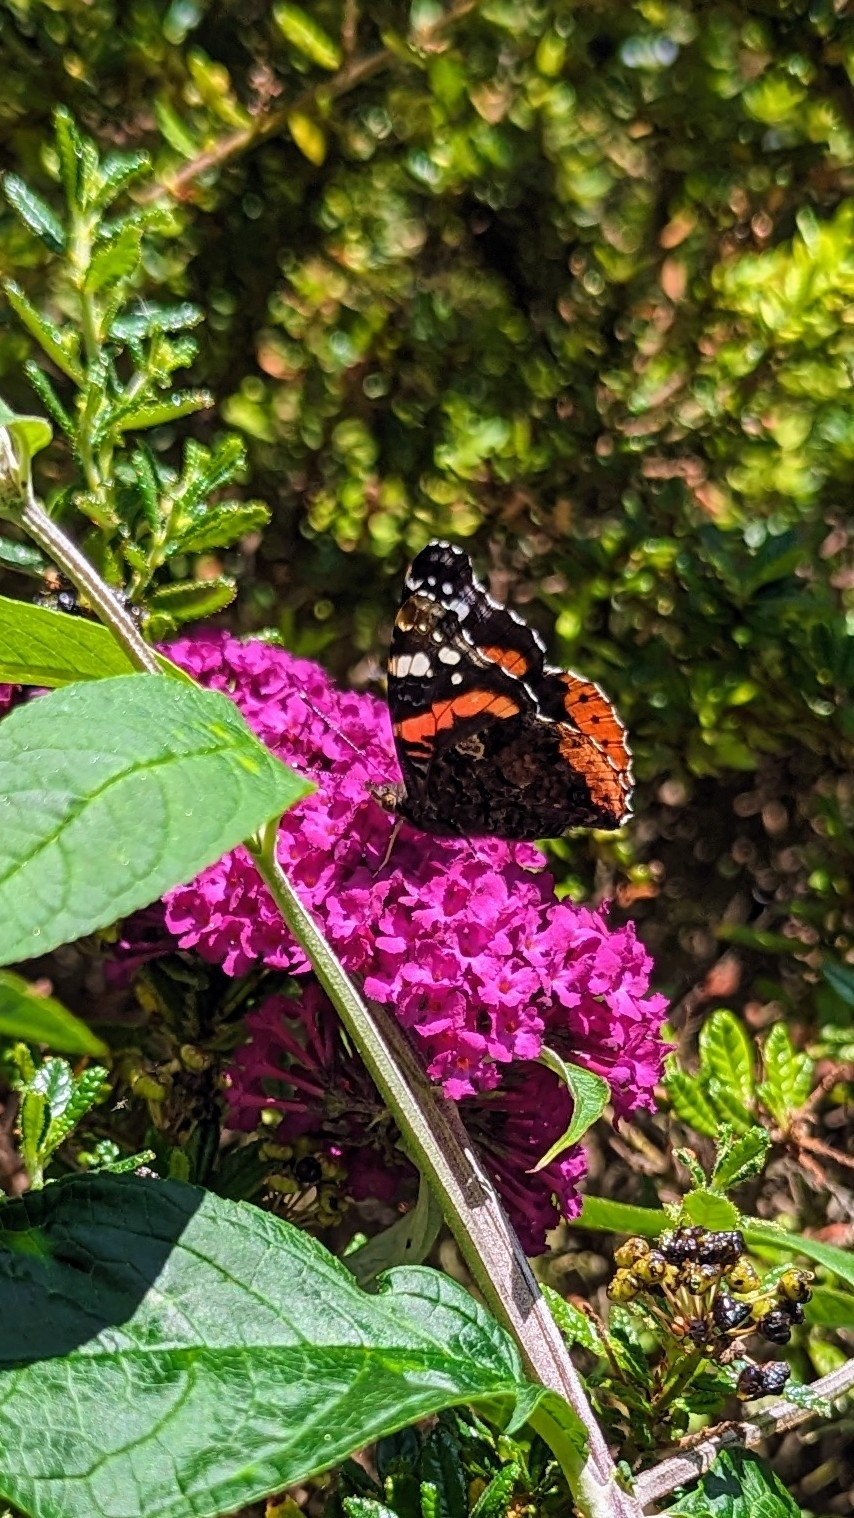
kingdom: Animalia
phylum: Arthropoda
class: Insecta
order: Lepidoptera
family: Nymphalidae
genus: Vanessa
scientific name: Vanessa atalanta
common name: Red admiral
